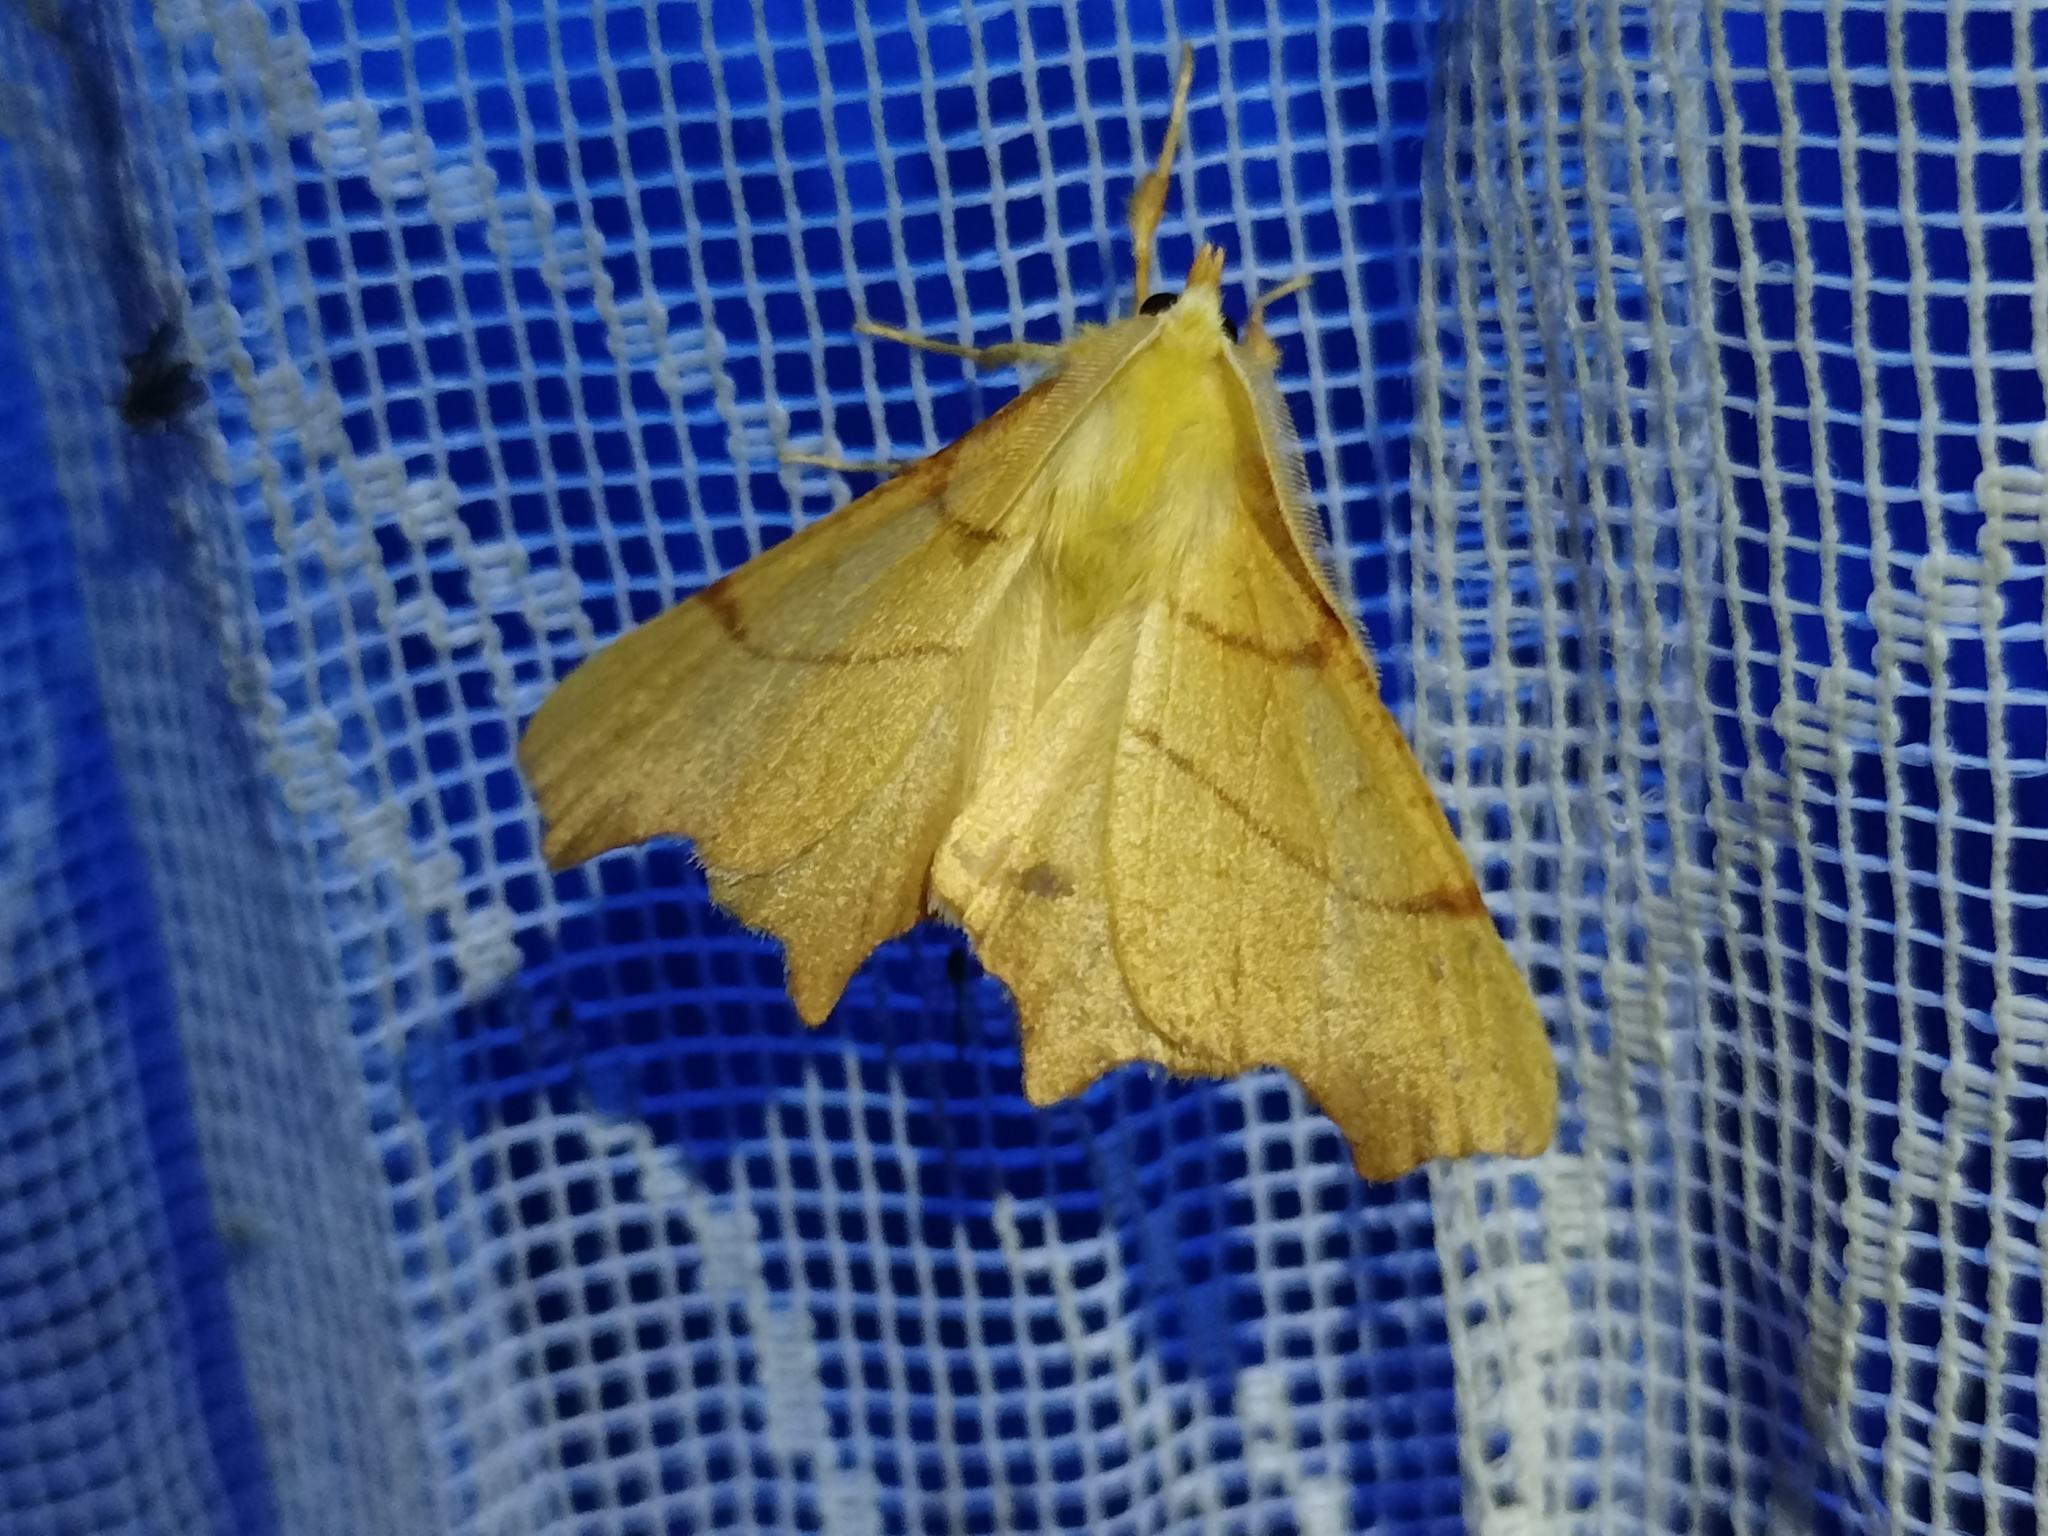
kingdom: Animalia
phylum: Arthropoda
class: Insecta
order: Lepidoptera
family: Geometridae
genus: Ennomos
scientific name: Ennomos erosaria
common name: September thorn
